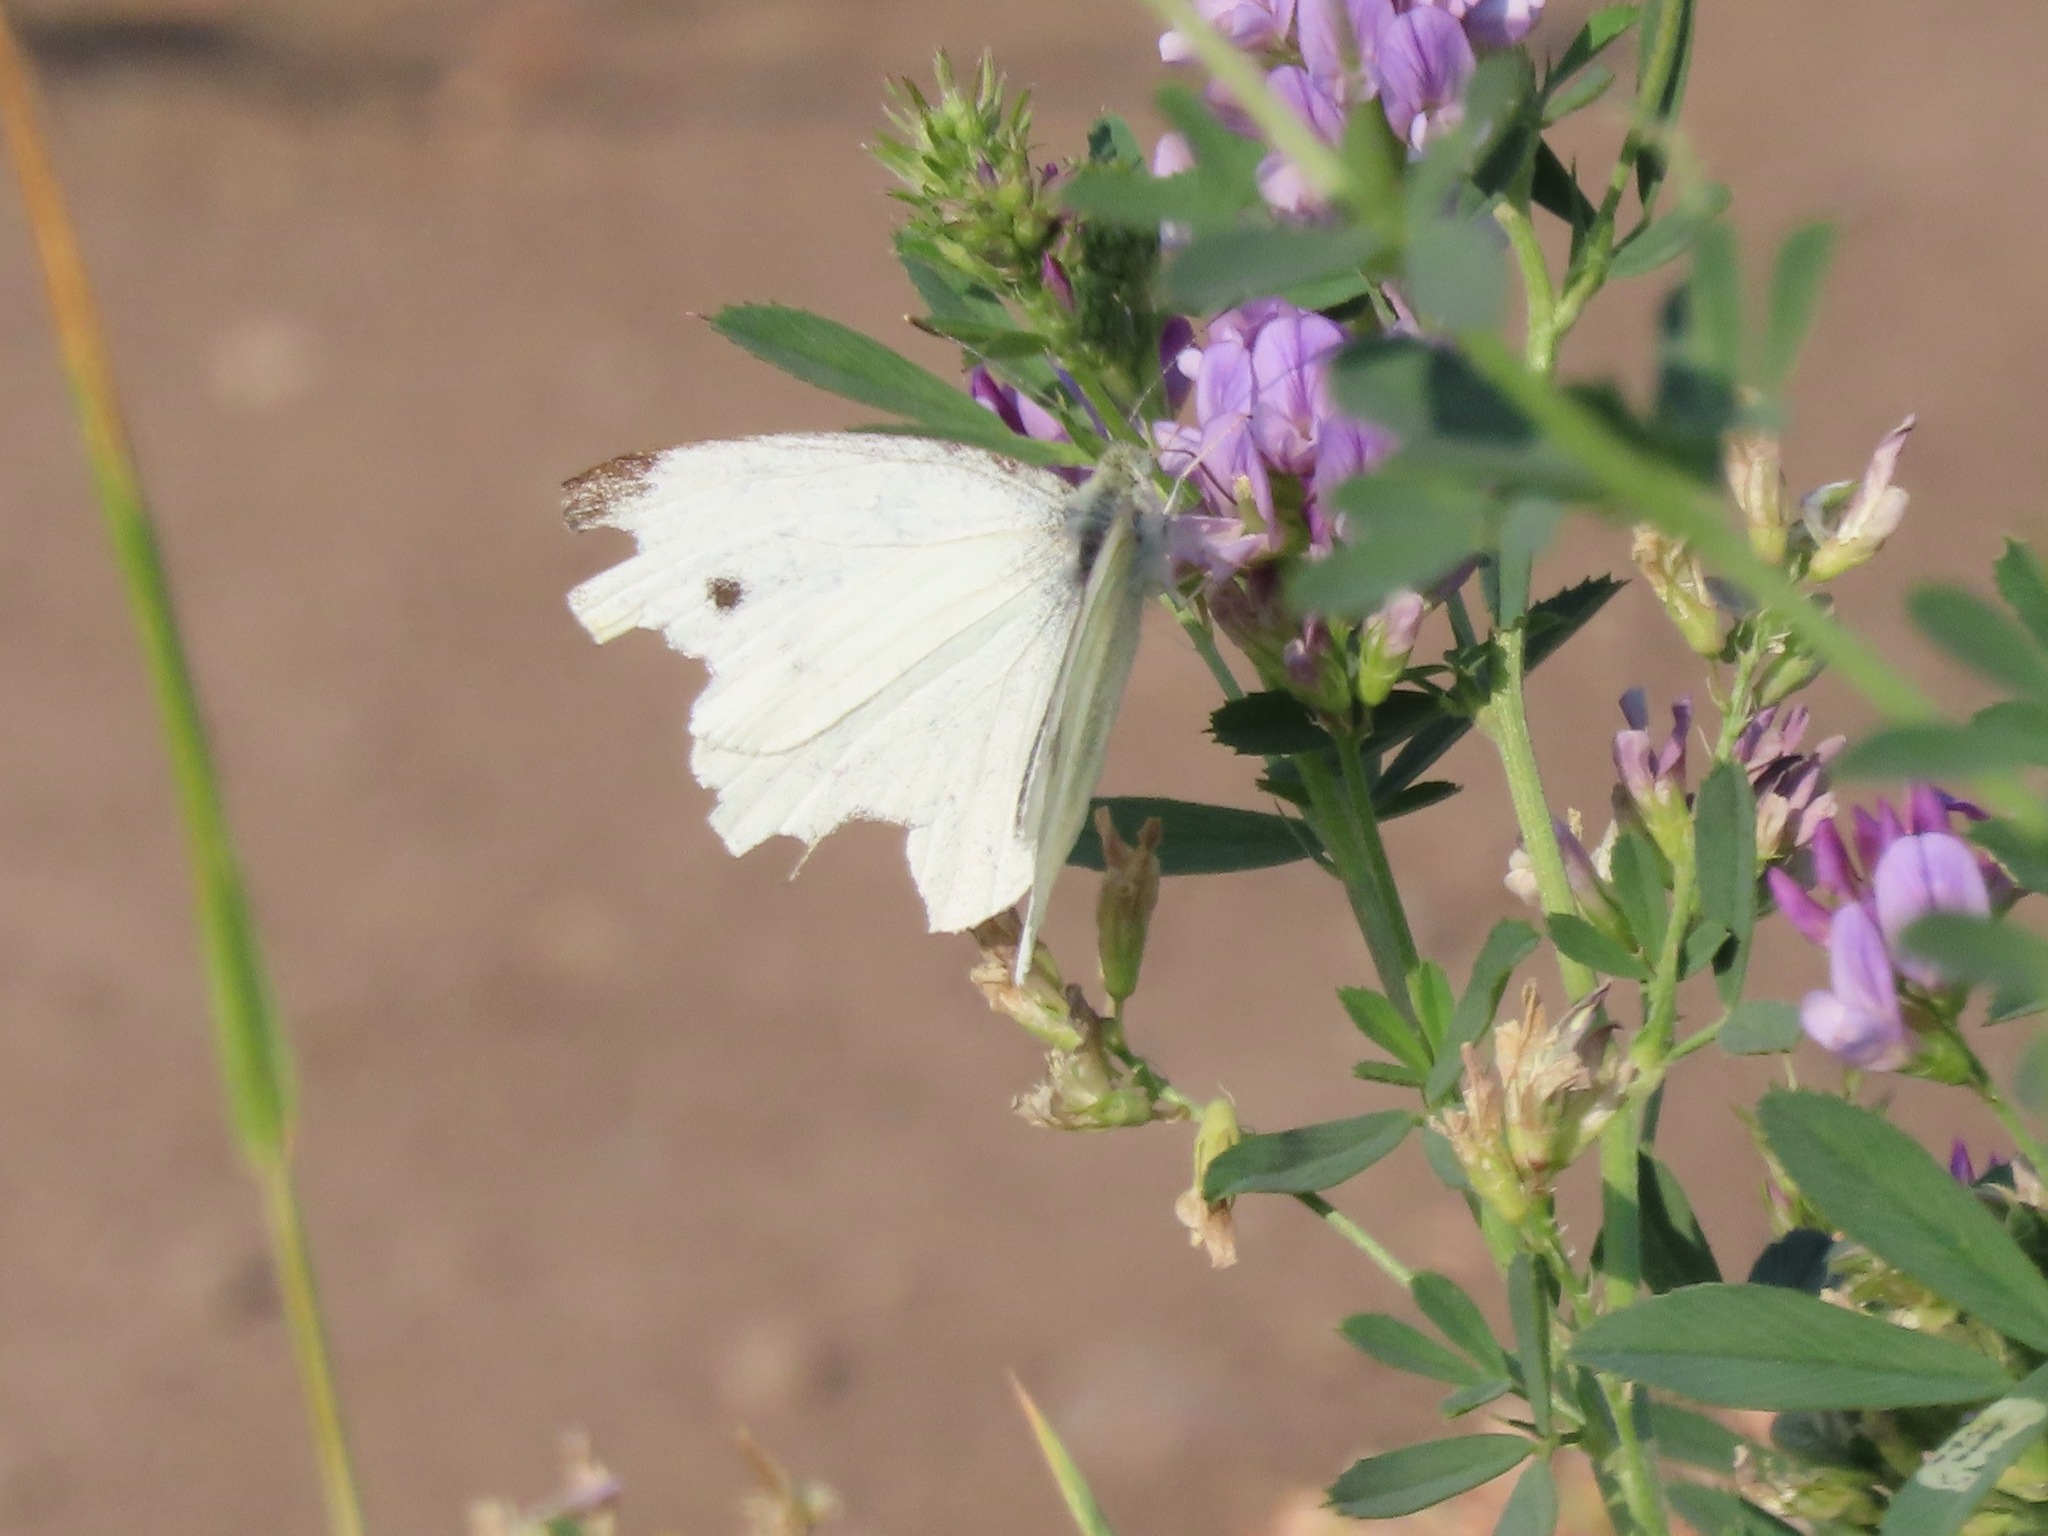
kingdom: Animalia
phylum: Arthropoda
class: Insecta
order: Lepidoptera
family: Pieridae
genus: Pieris
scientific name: Pieris rapae
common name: Small white
